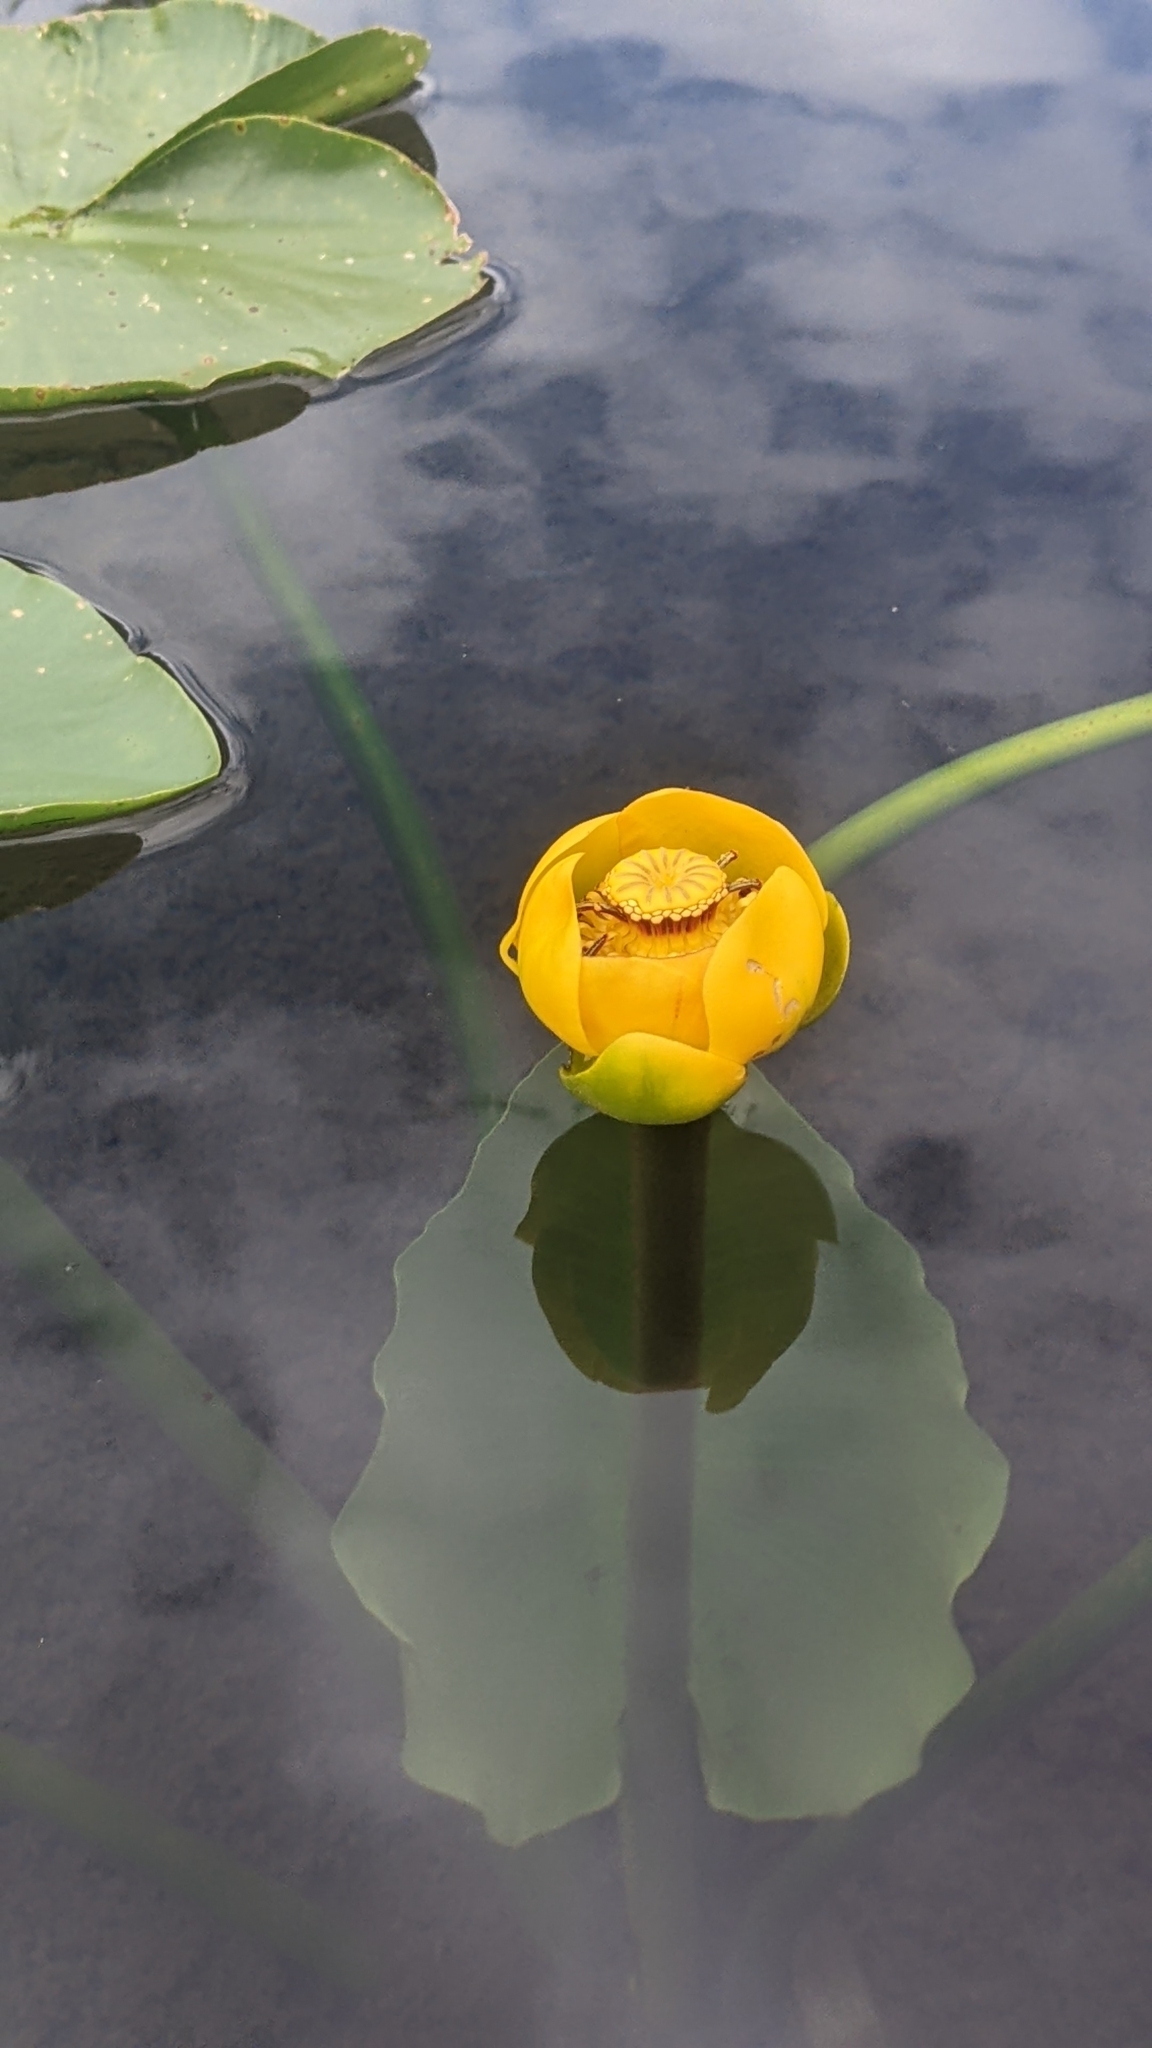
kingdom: Plantae
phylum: Tracheophyta
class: Magnoliopsida
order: Nymphaeales
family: Nymphaeaceae
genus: Nuphar
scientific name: Nuphar polysepala
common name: Rocky mountain cow-lily
